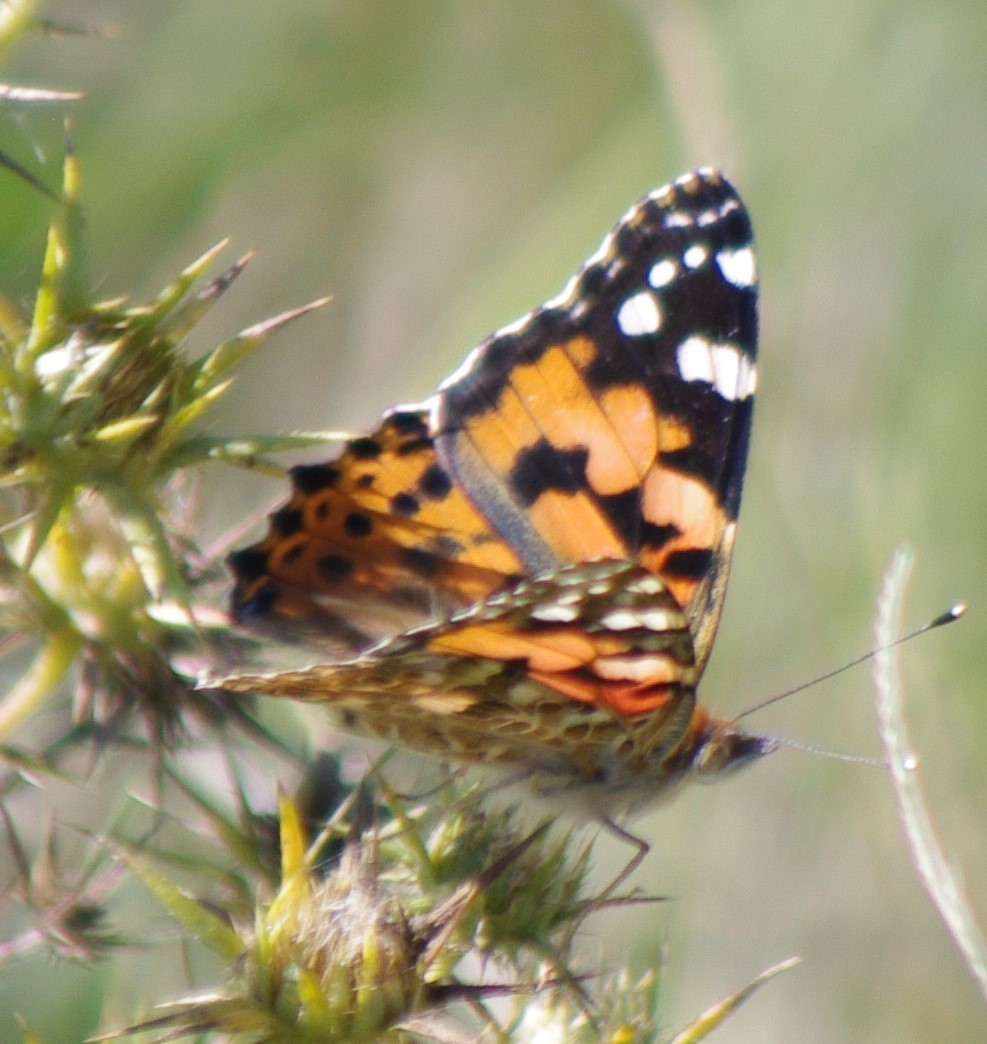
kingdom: Animalia
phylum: Arthropoda
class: Insecta
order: Lepidoptera
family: Nymphalidae
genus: Vanessa
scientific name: Vanessa cardui
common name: Painted lady
